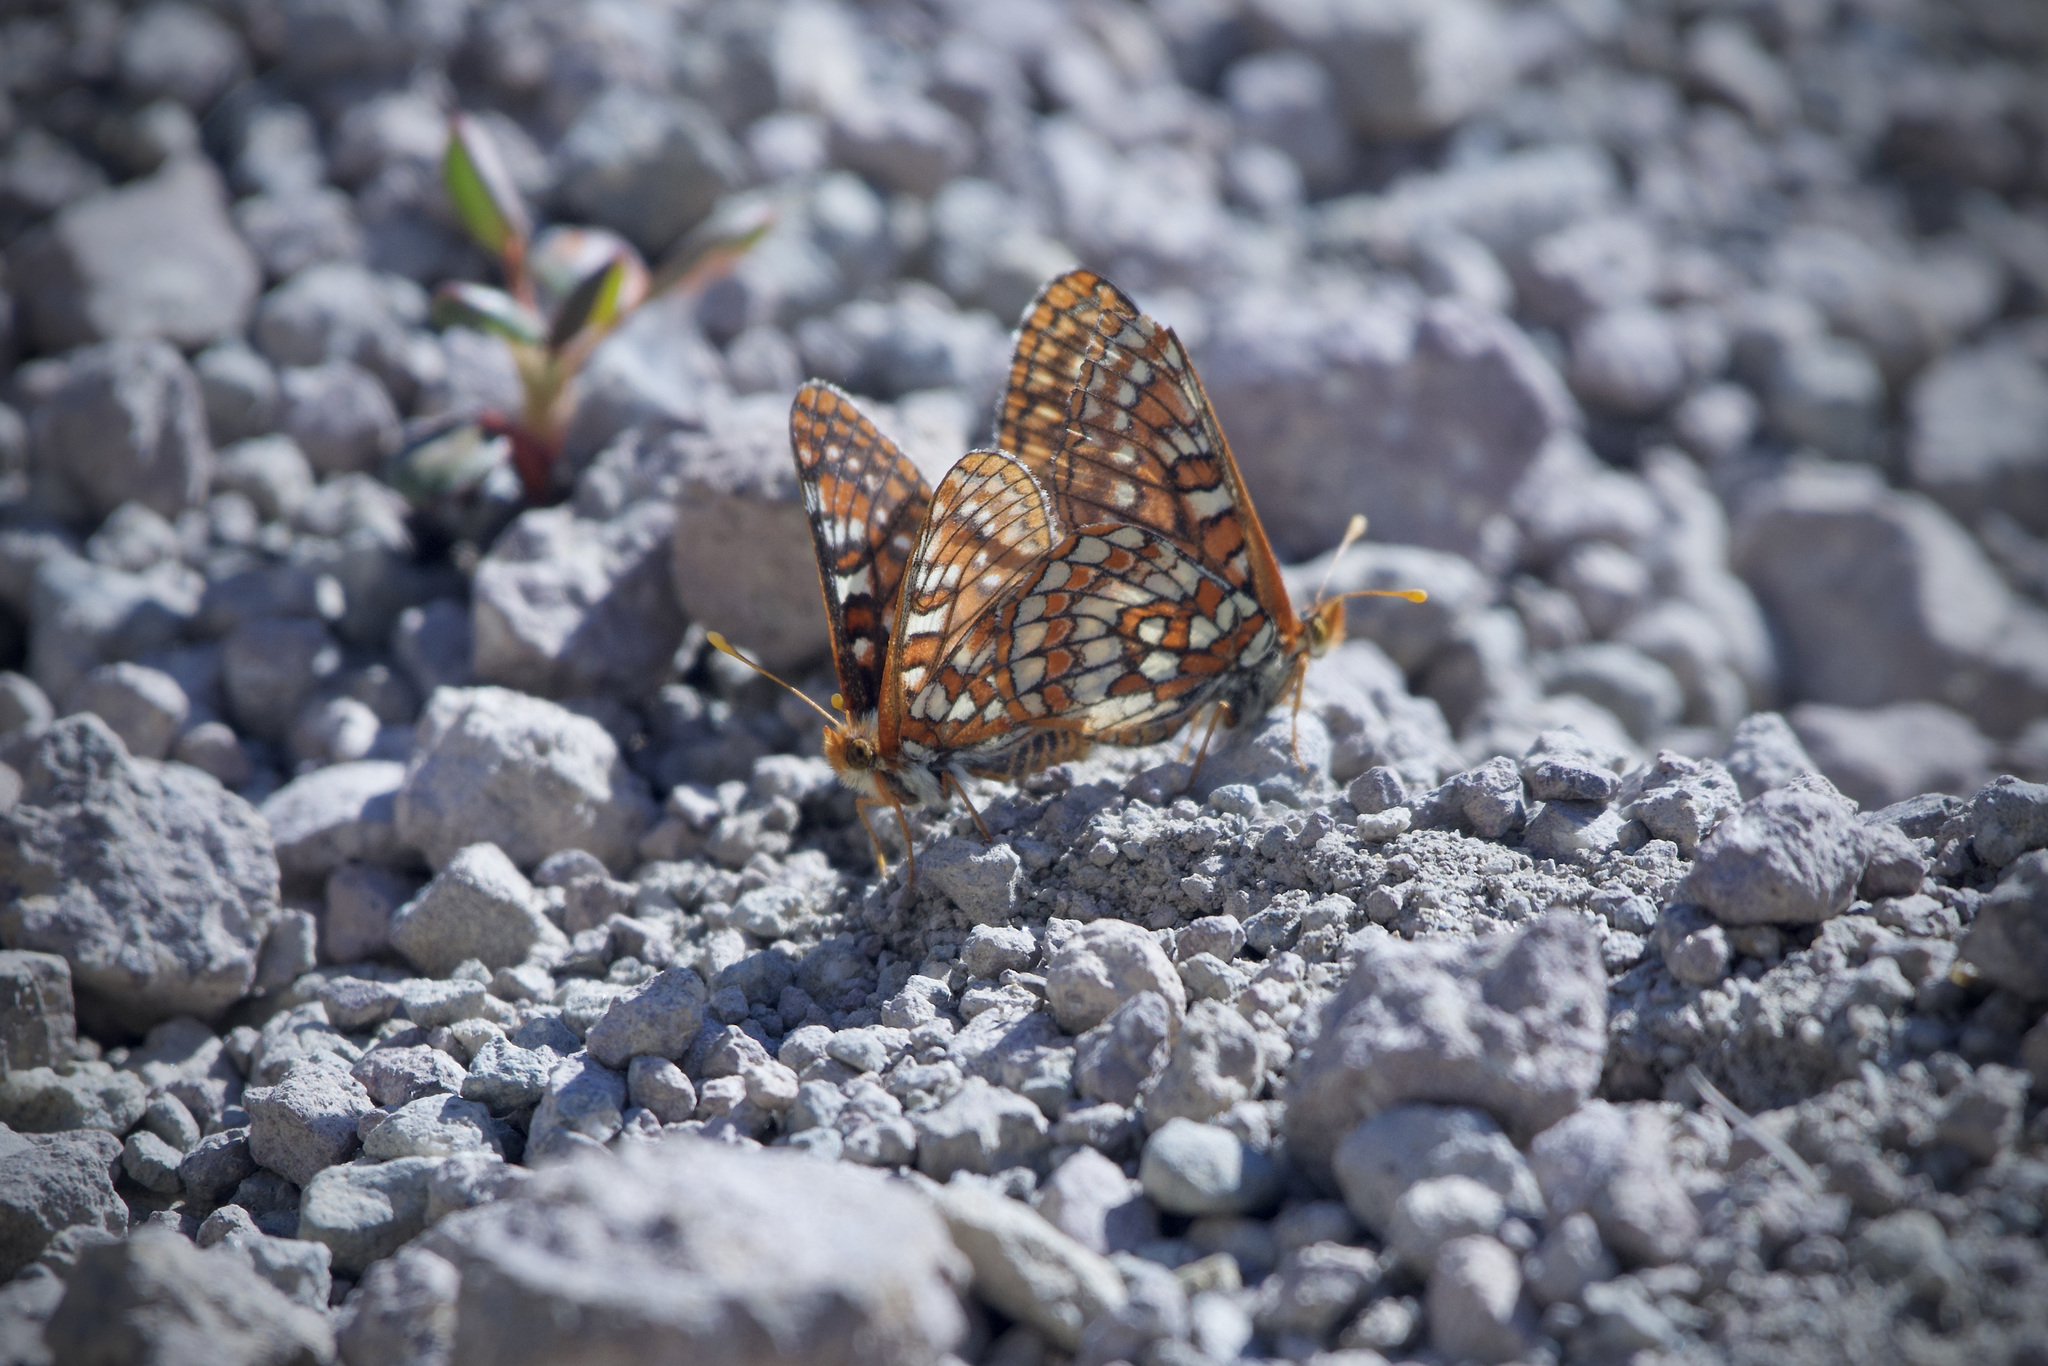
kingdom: Animalia
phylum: Arthropoda
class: Insecta
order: Lepidoptera
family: Nymphalidae
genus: Occidryas
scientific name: Occidryas editha
